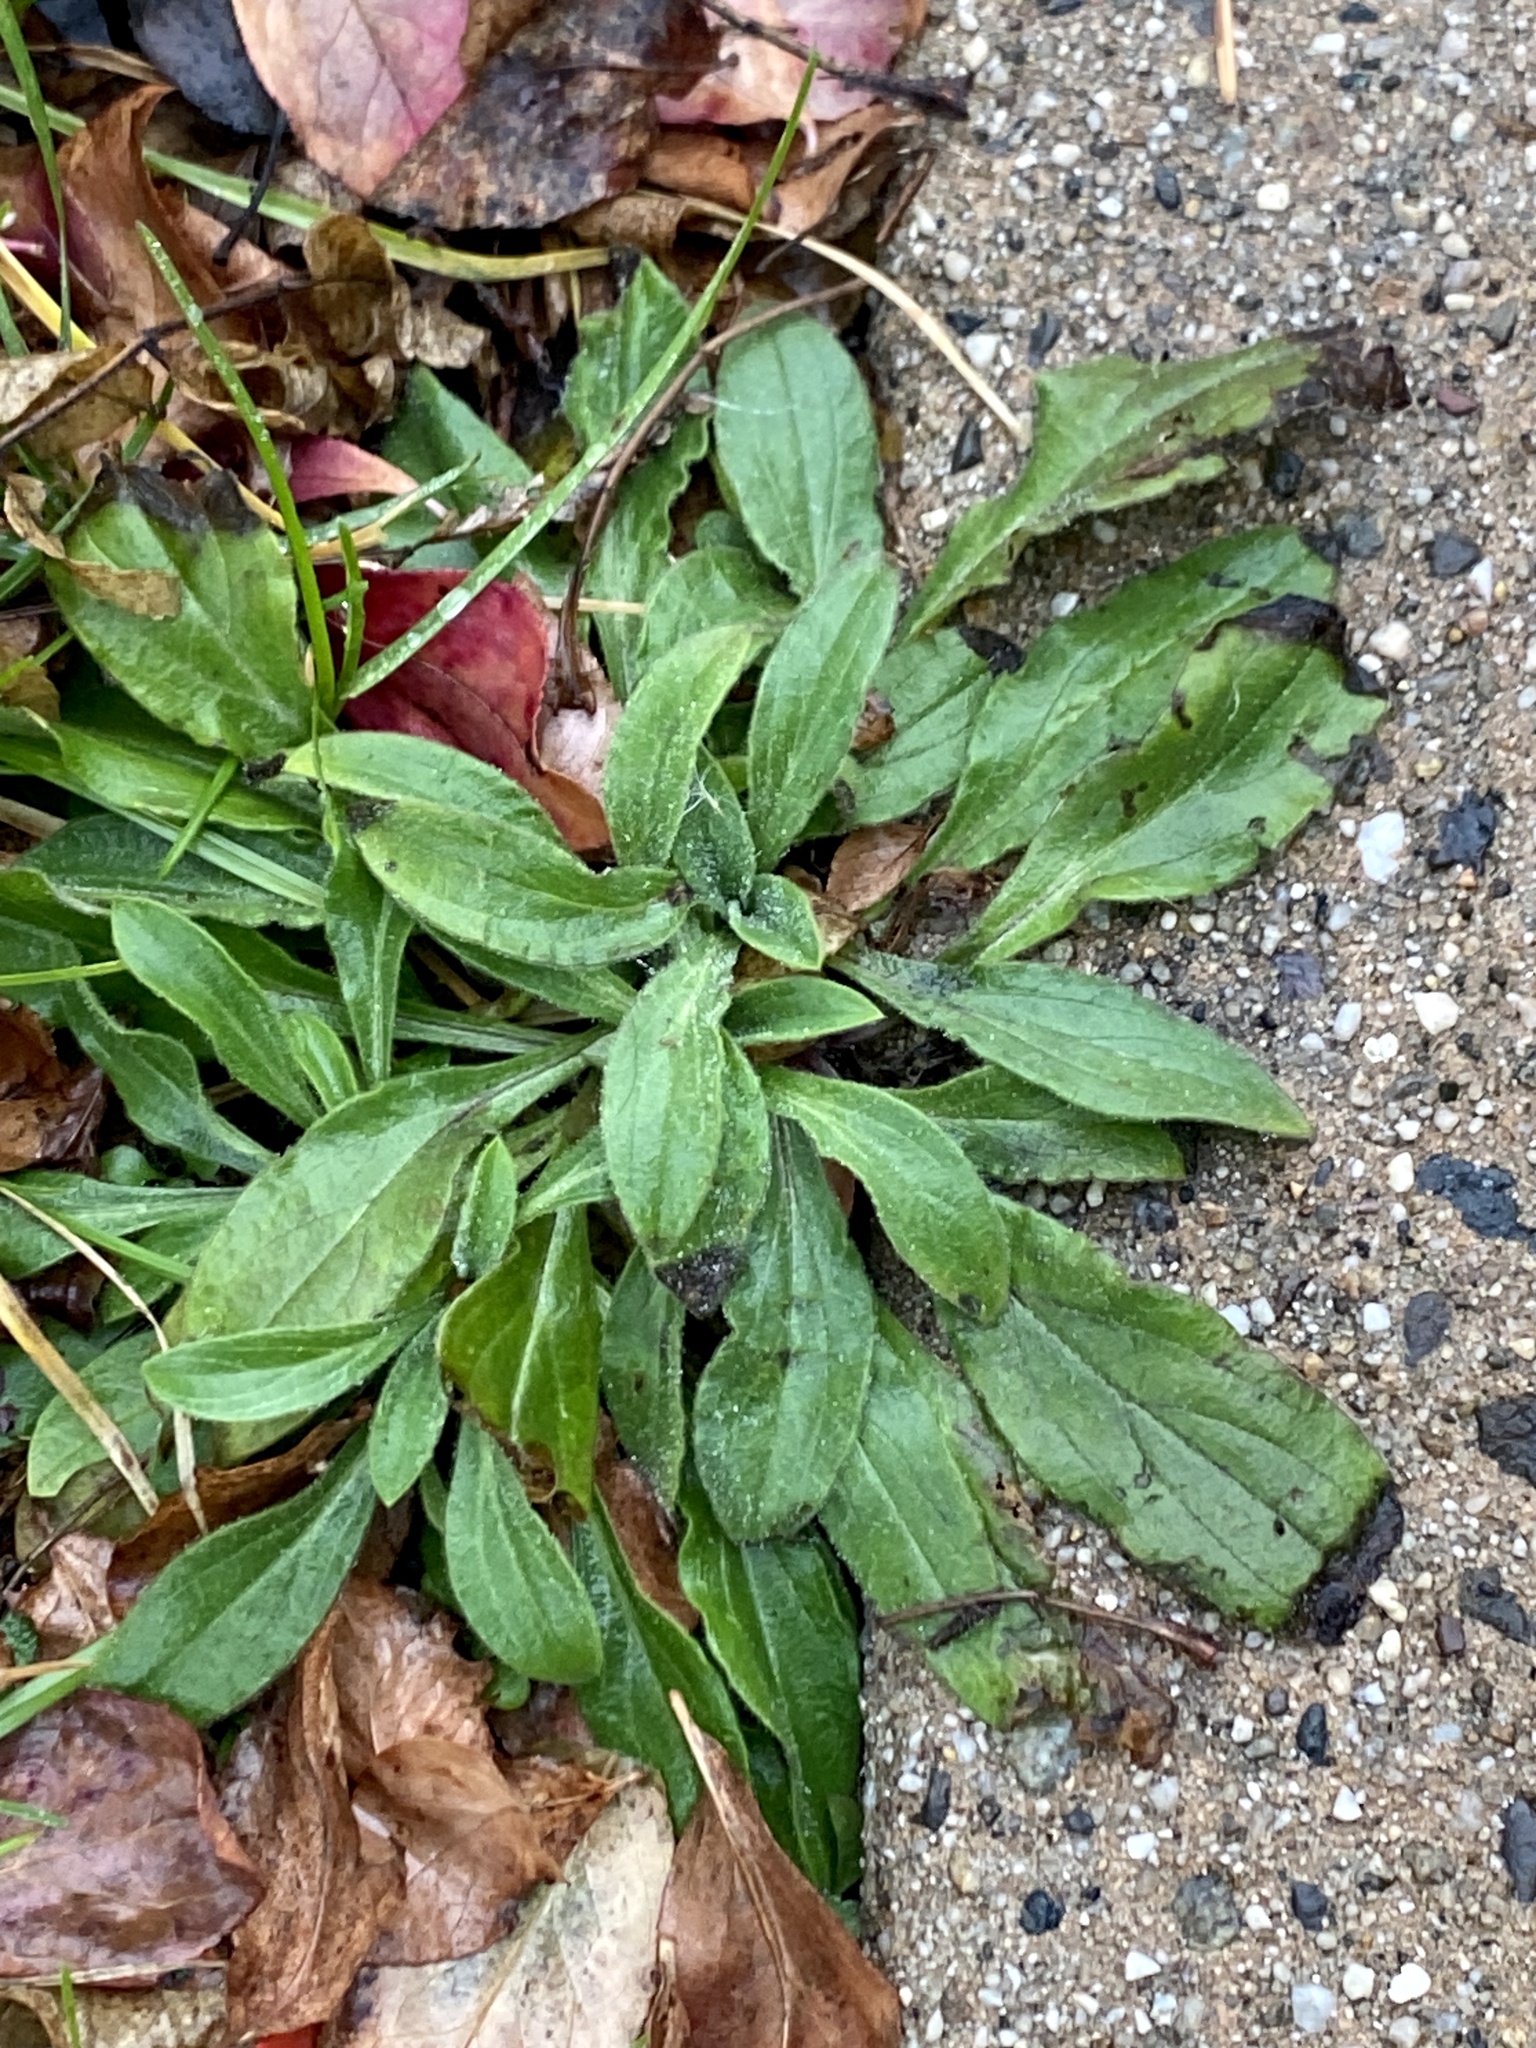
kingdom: Plantae
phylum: Tracheophyta
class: Magnoliopsida
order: Caryophyllales
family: Caryophyllaceae
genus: Silene
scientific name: Silene latifolia
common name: White campion
